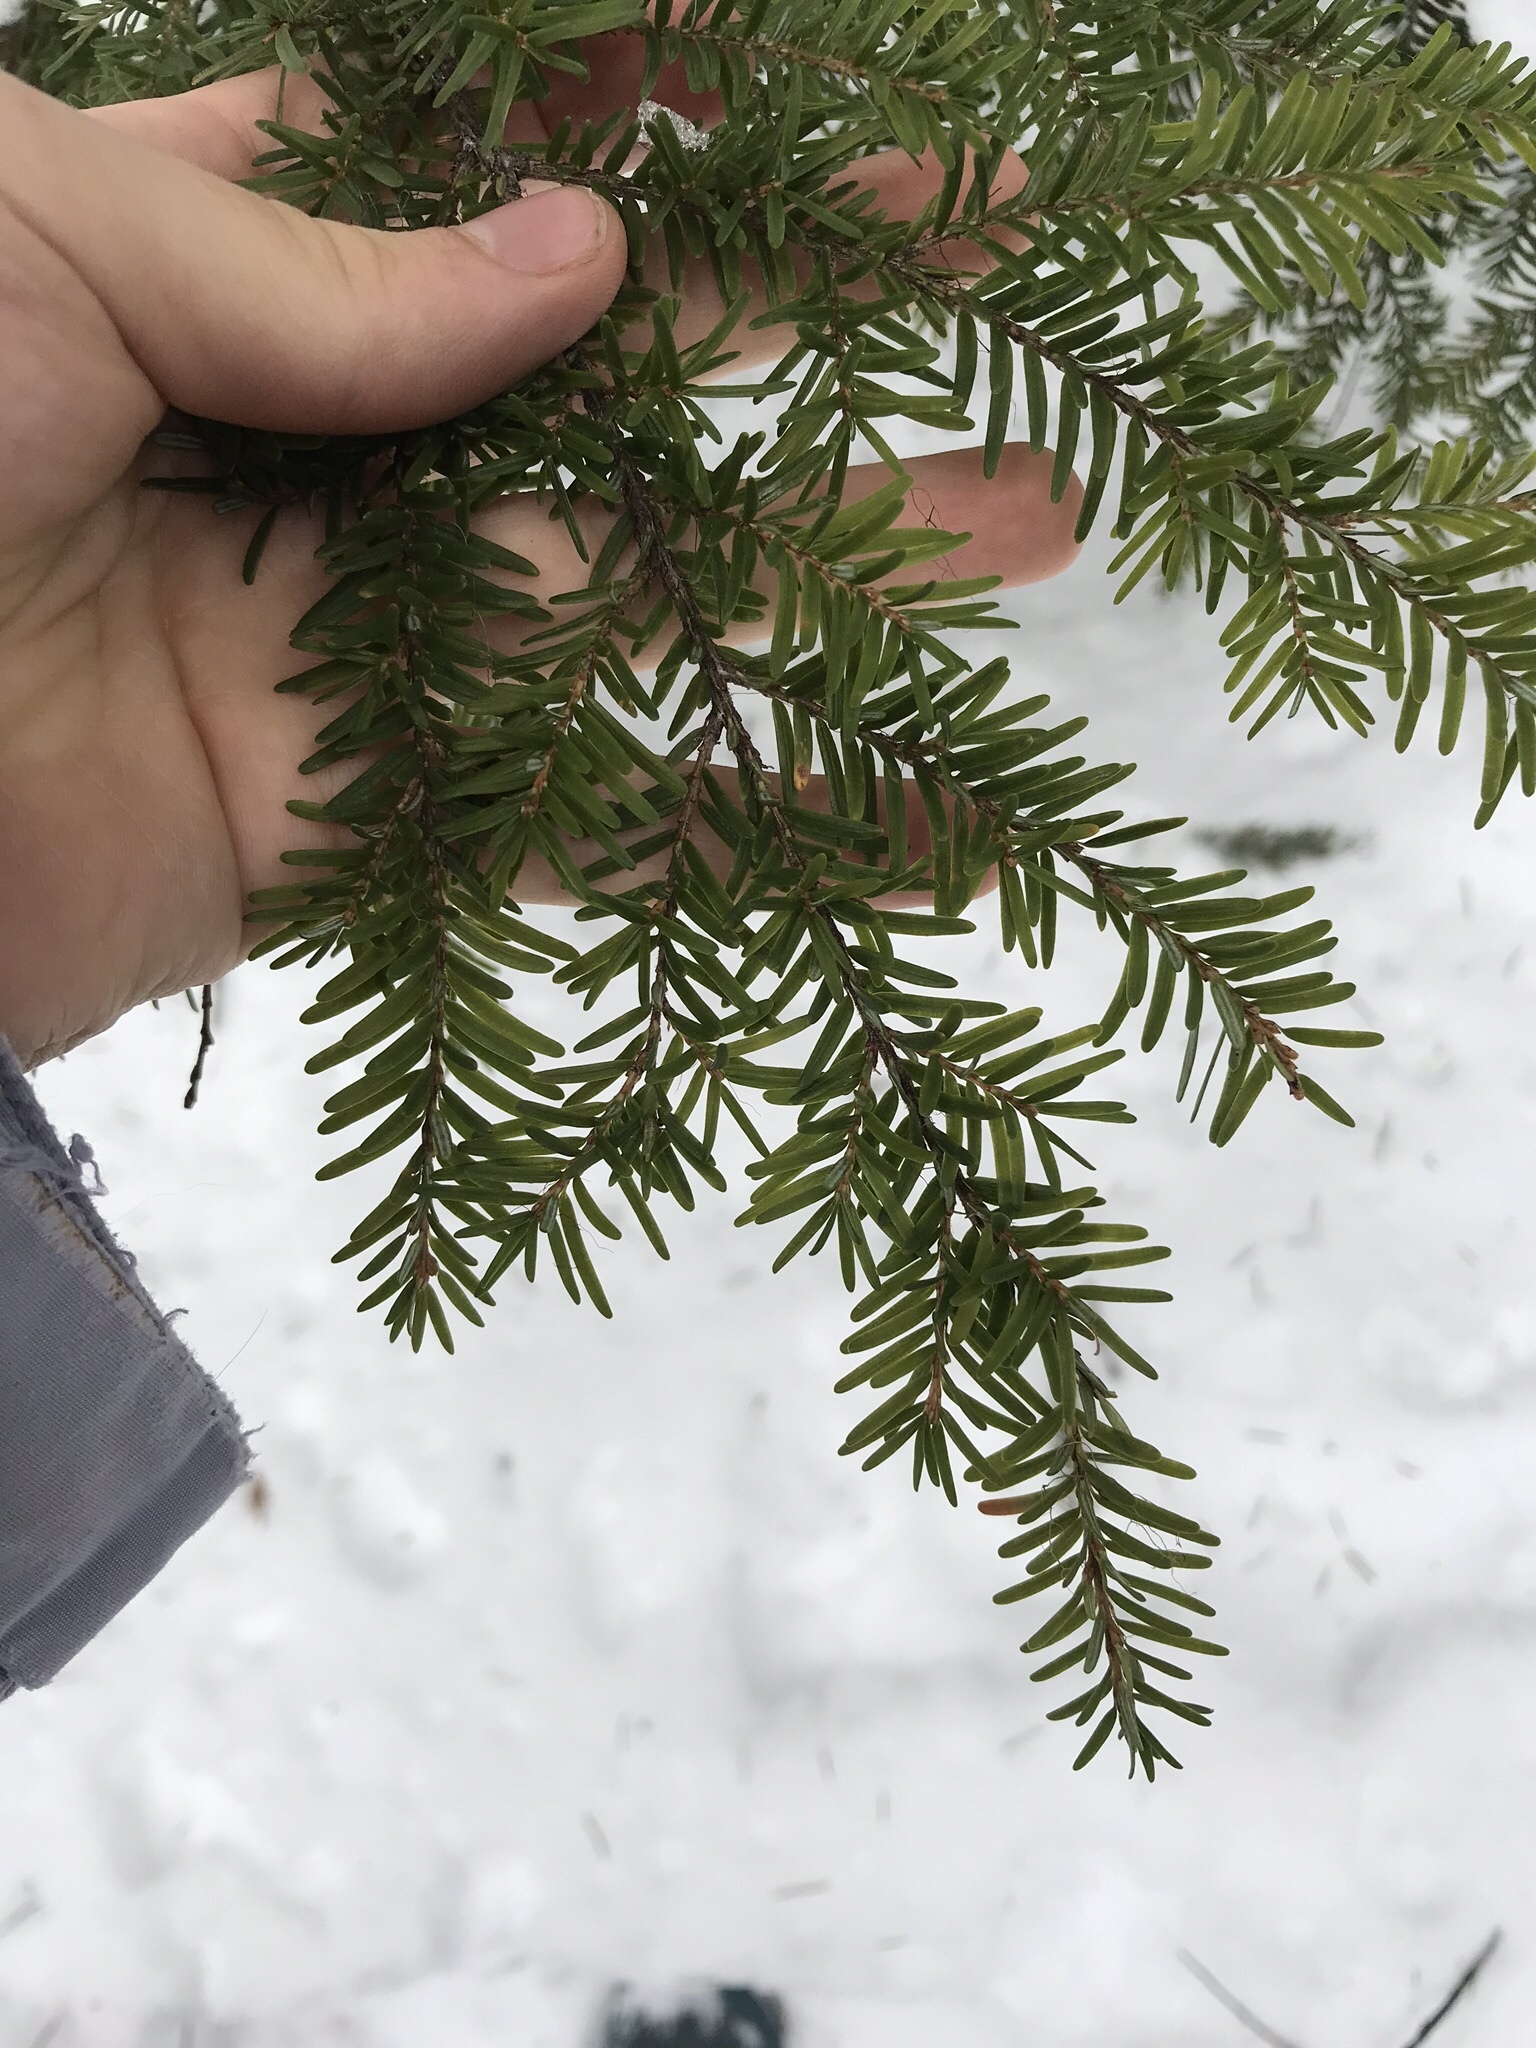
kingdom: Plantae
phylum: Tracheophyta
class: Pinopsida
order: Pinales
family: Pinaceae
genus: Tsuga
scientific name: Tsuga heterophylla
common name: Western hemlock
